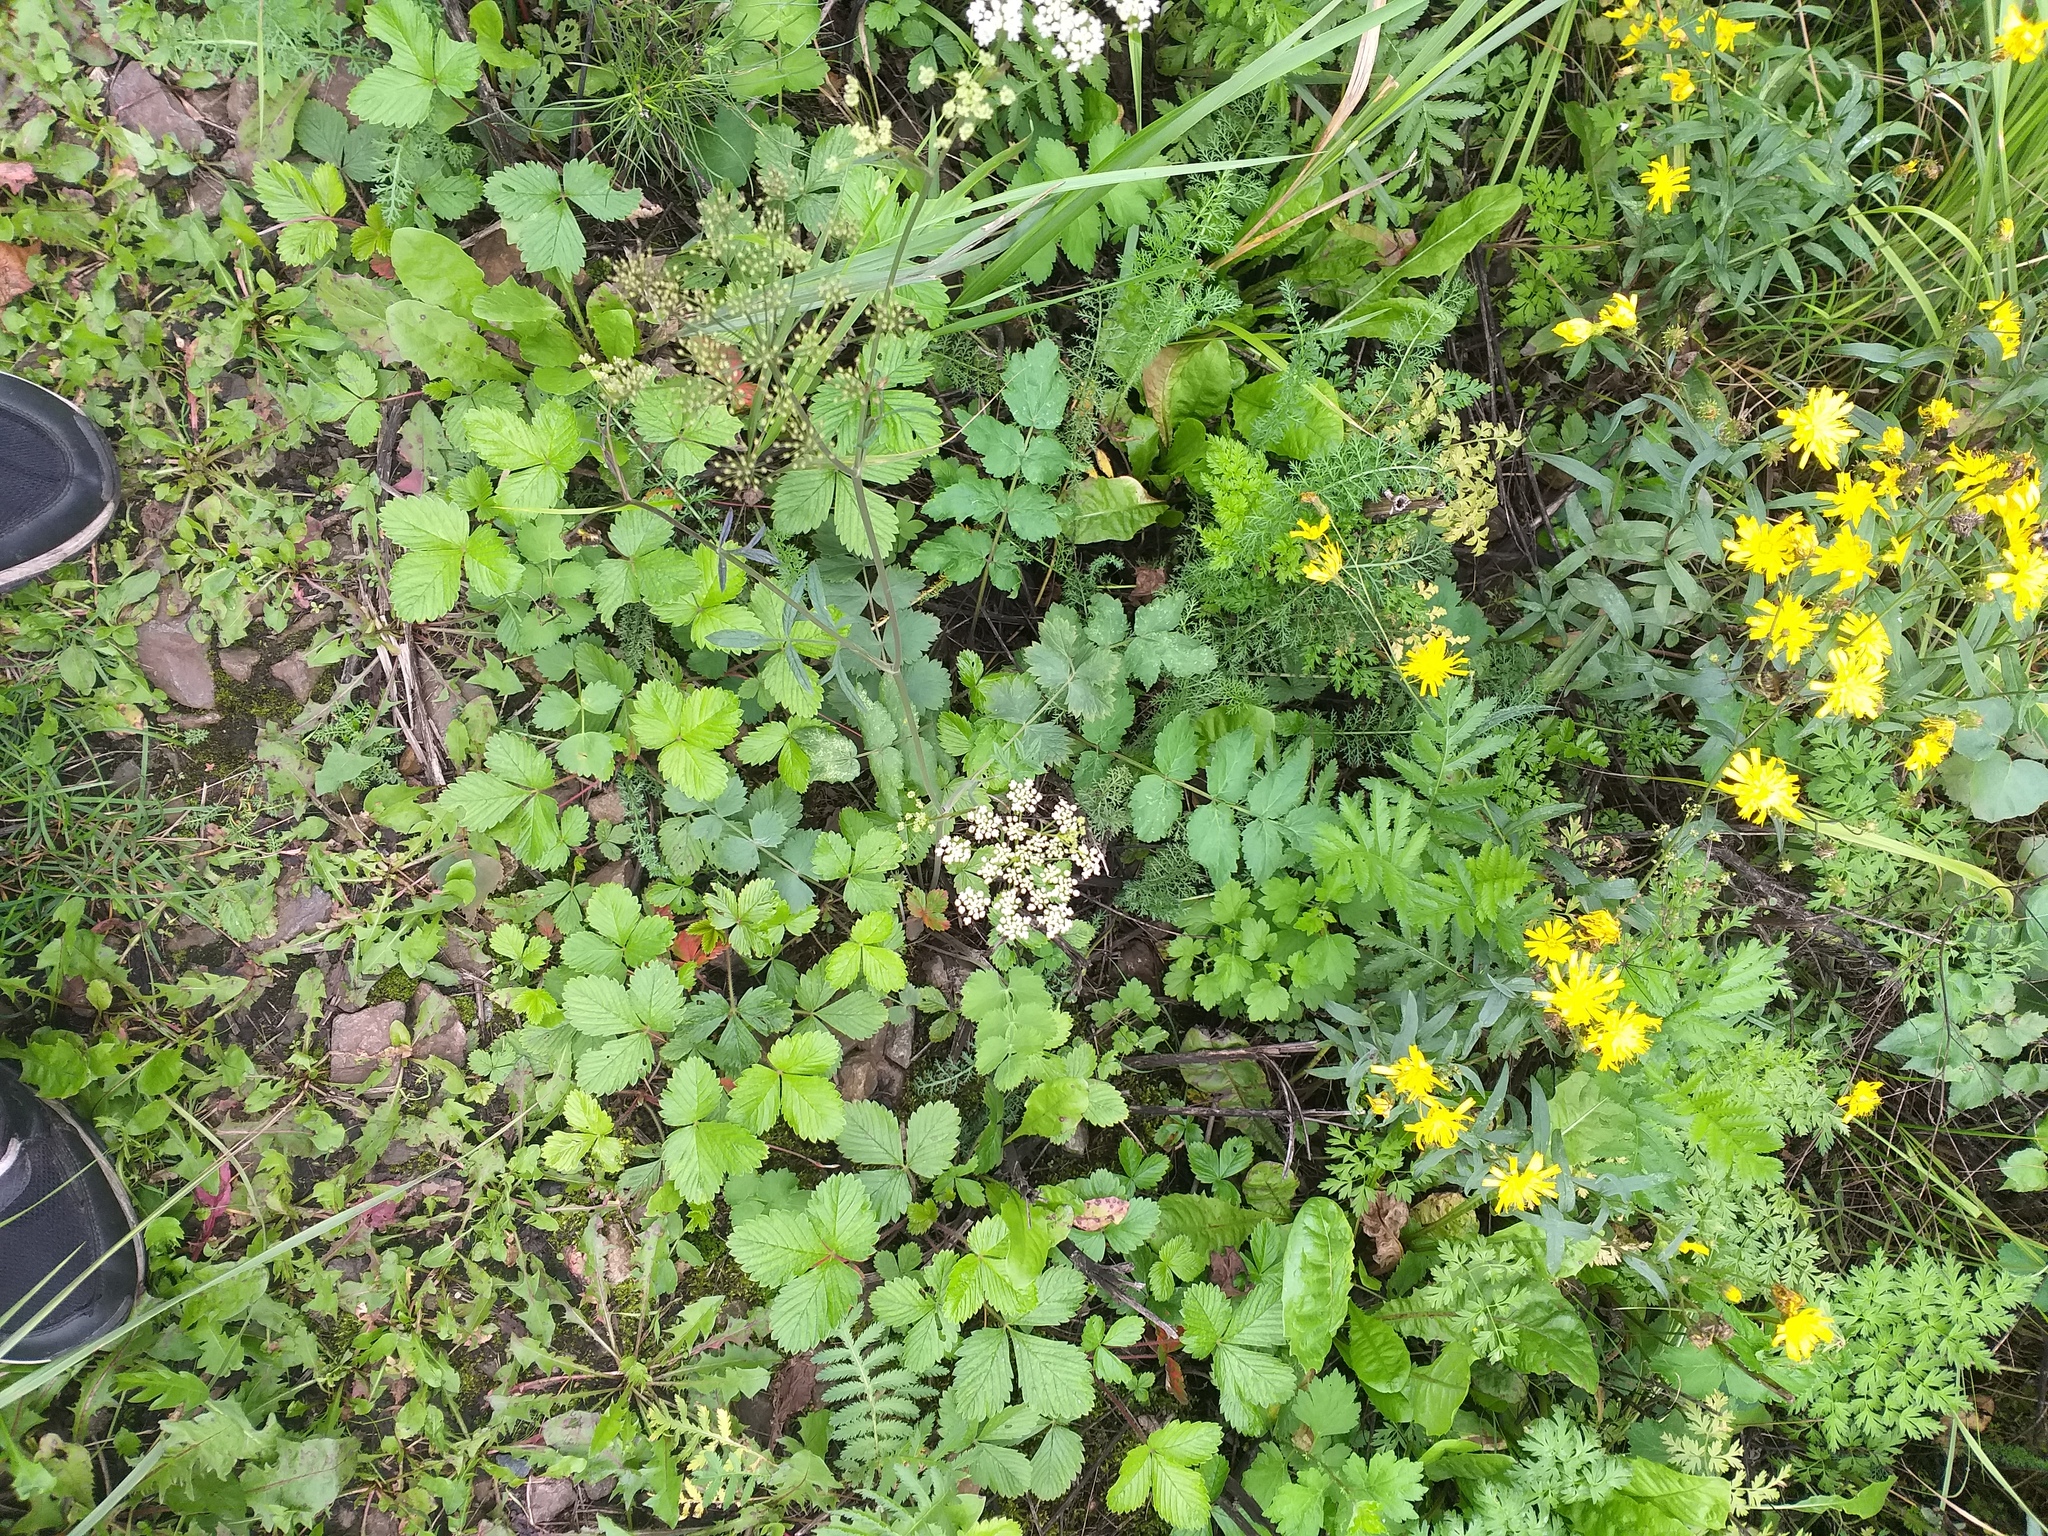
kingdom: Plantae
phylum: Tracheophyta
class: Magnoliopsida
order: Apiales
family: Apiaceae
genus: Pimpinella
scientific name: Pimpinella saxifraga
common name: Burnet-saxifrage
